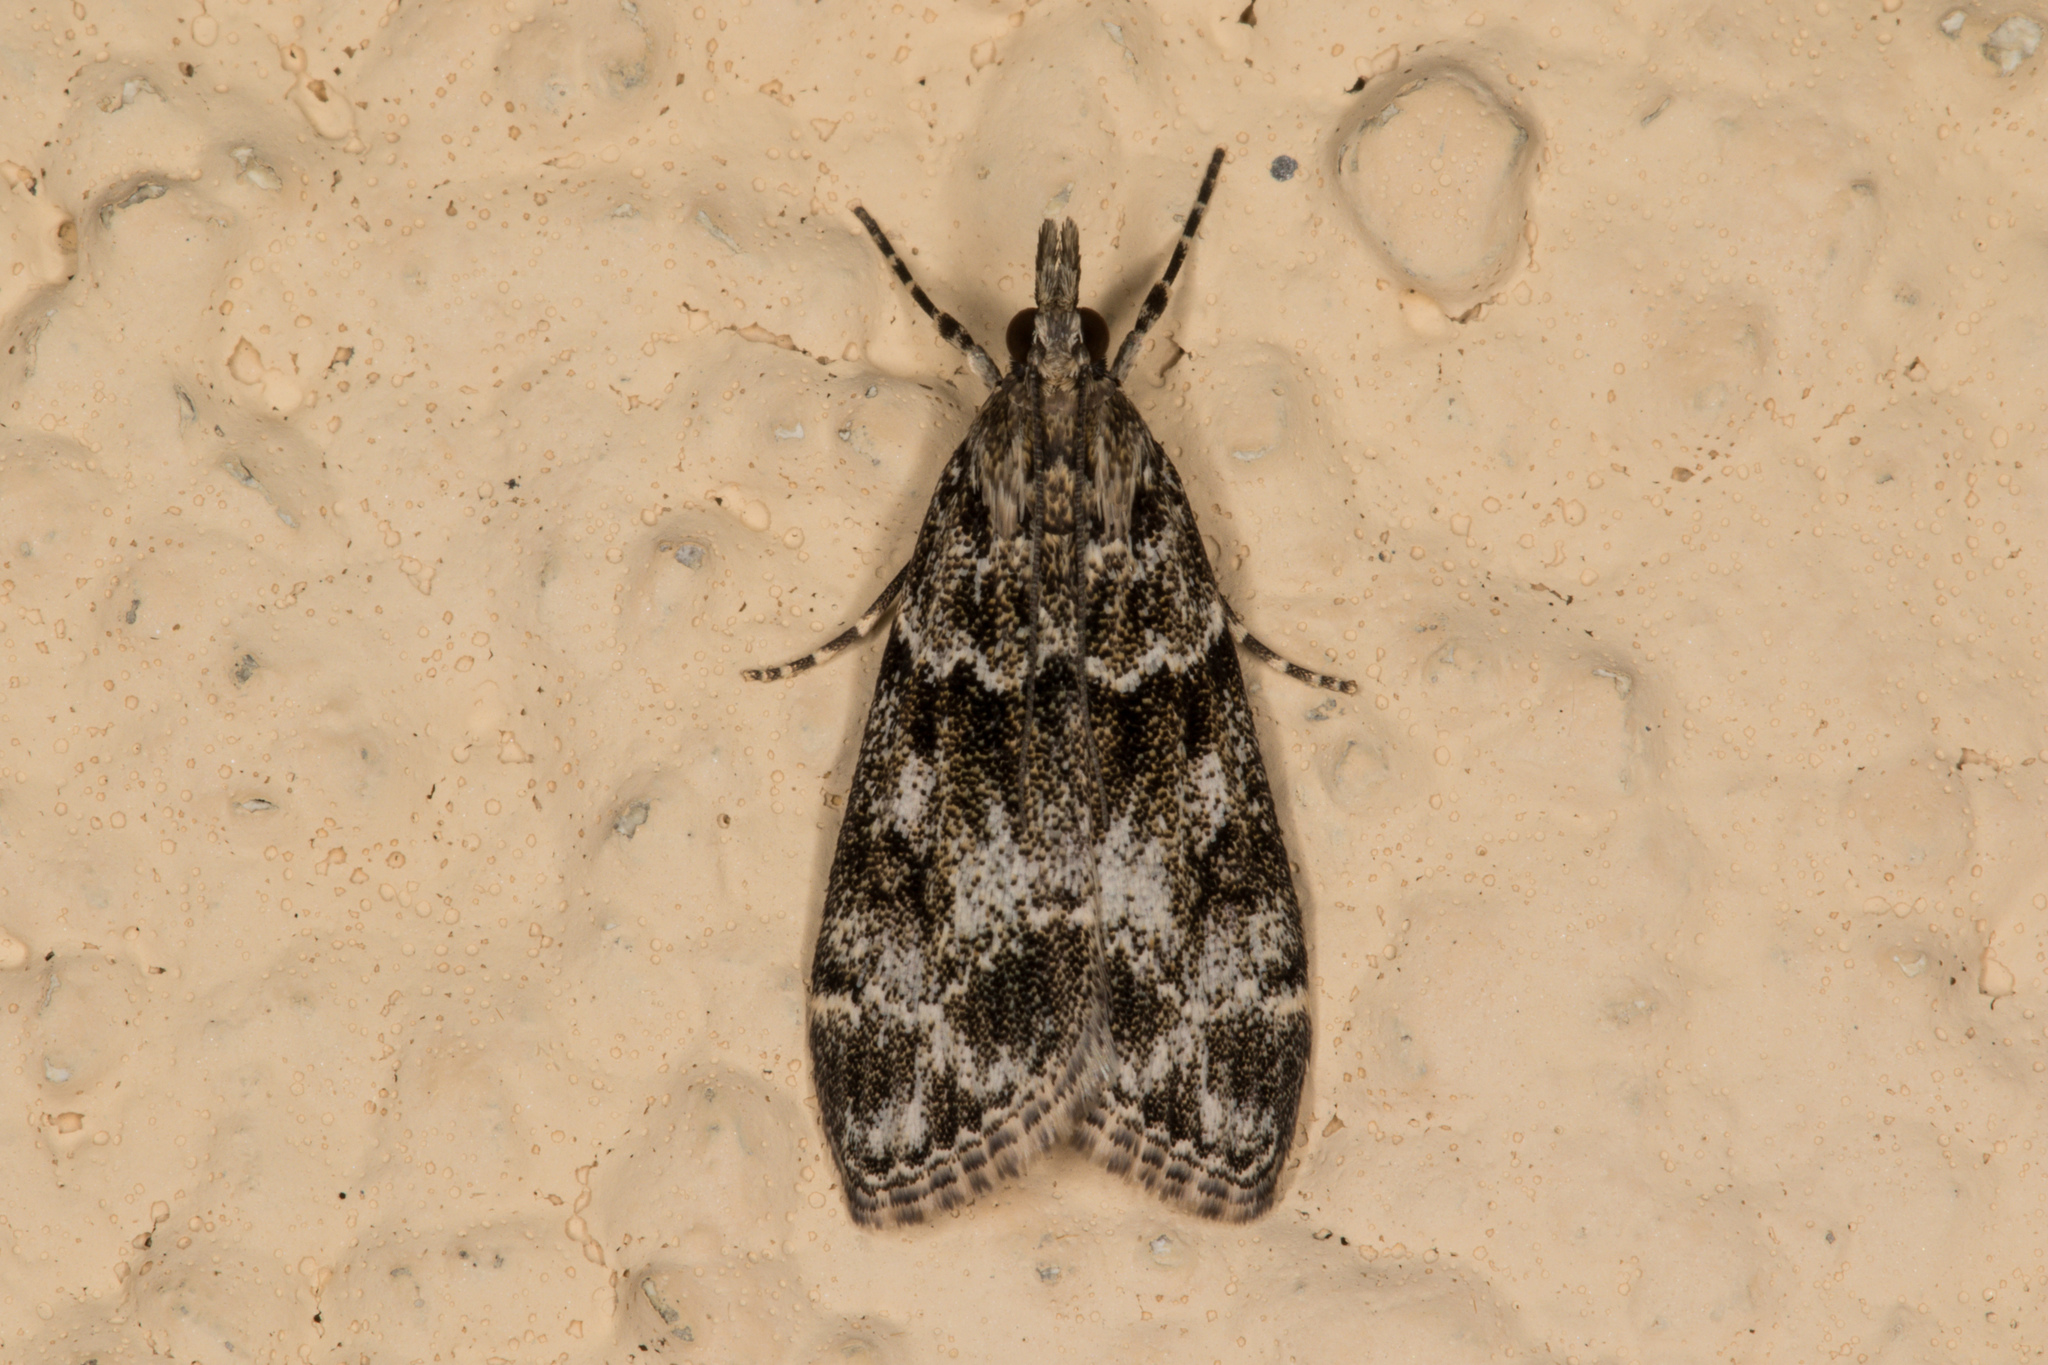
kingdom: Animalia
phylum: Arthropoda
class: Insecta
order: Lepidoptera
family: Crambidae
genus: Eudonia
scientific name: Eudonia mercurella
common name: Small grey
